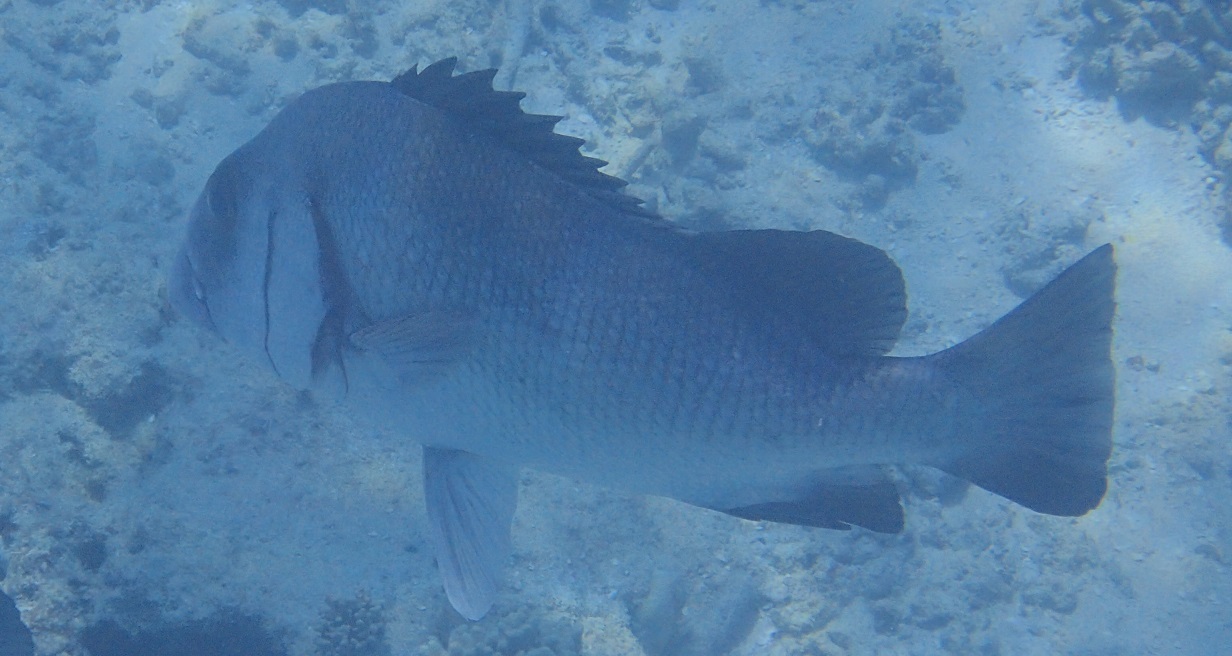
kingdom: Animalia
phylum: Chordata
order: Perciformes
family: Haemulidae
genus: Plectorhinchus
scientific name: Plectorhinchus gibbosus
